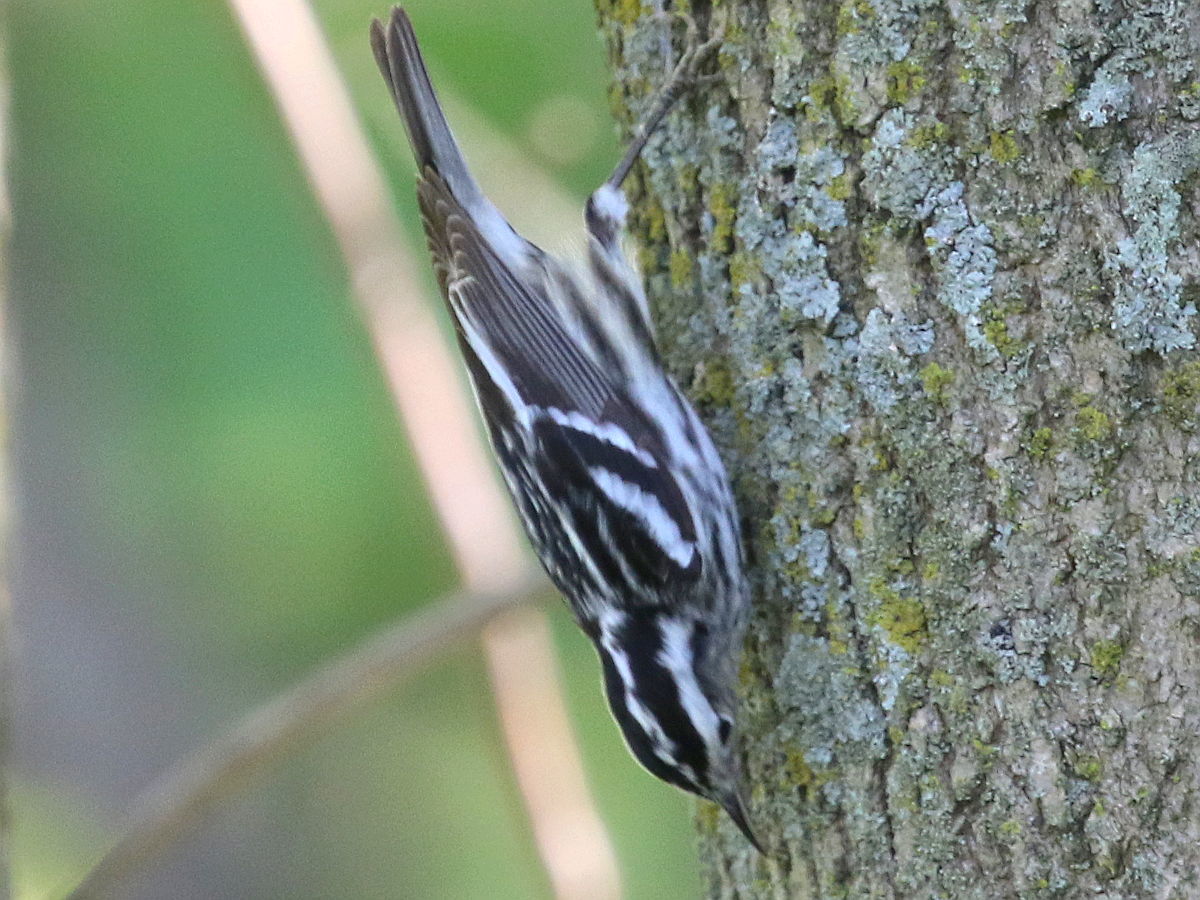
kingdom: Animalia
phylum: Chordata
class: Aves
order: Passeriformes
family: Parulidae
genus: Mniotilta
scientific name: Mniotilta varia
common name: Black-and-white warbler
